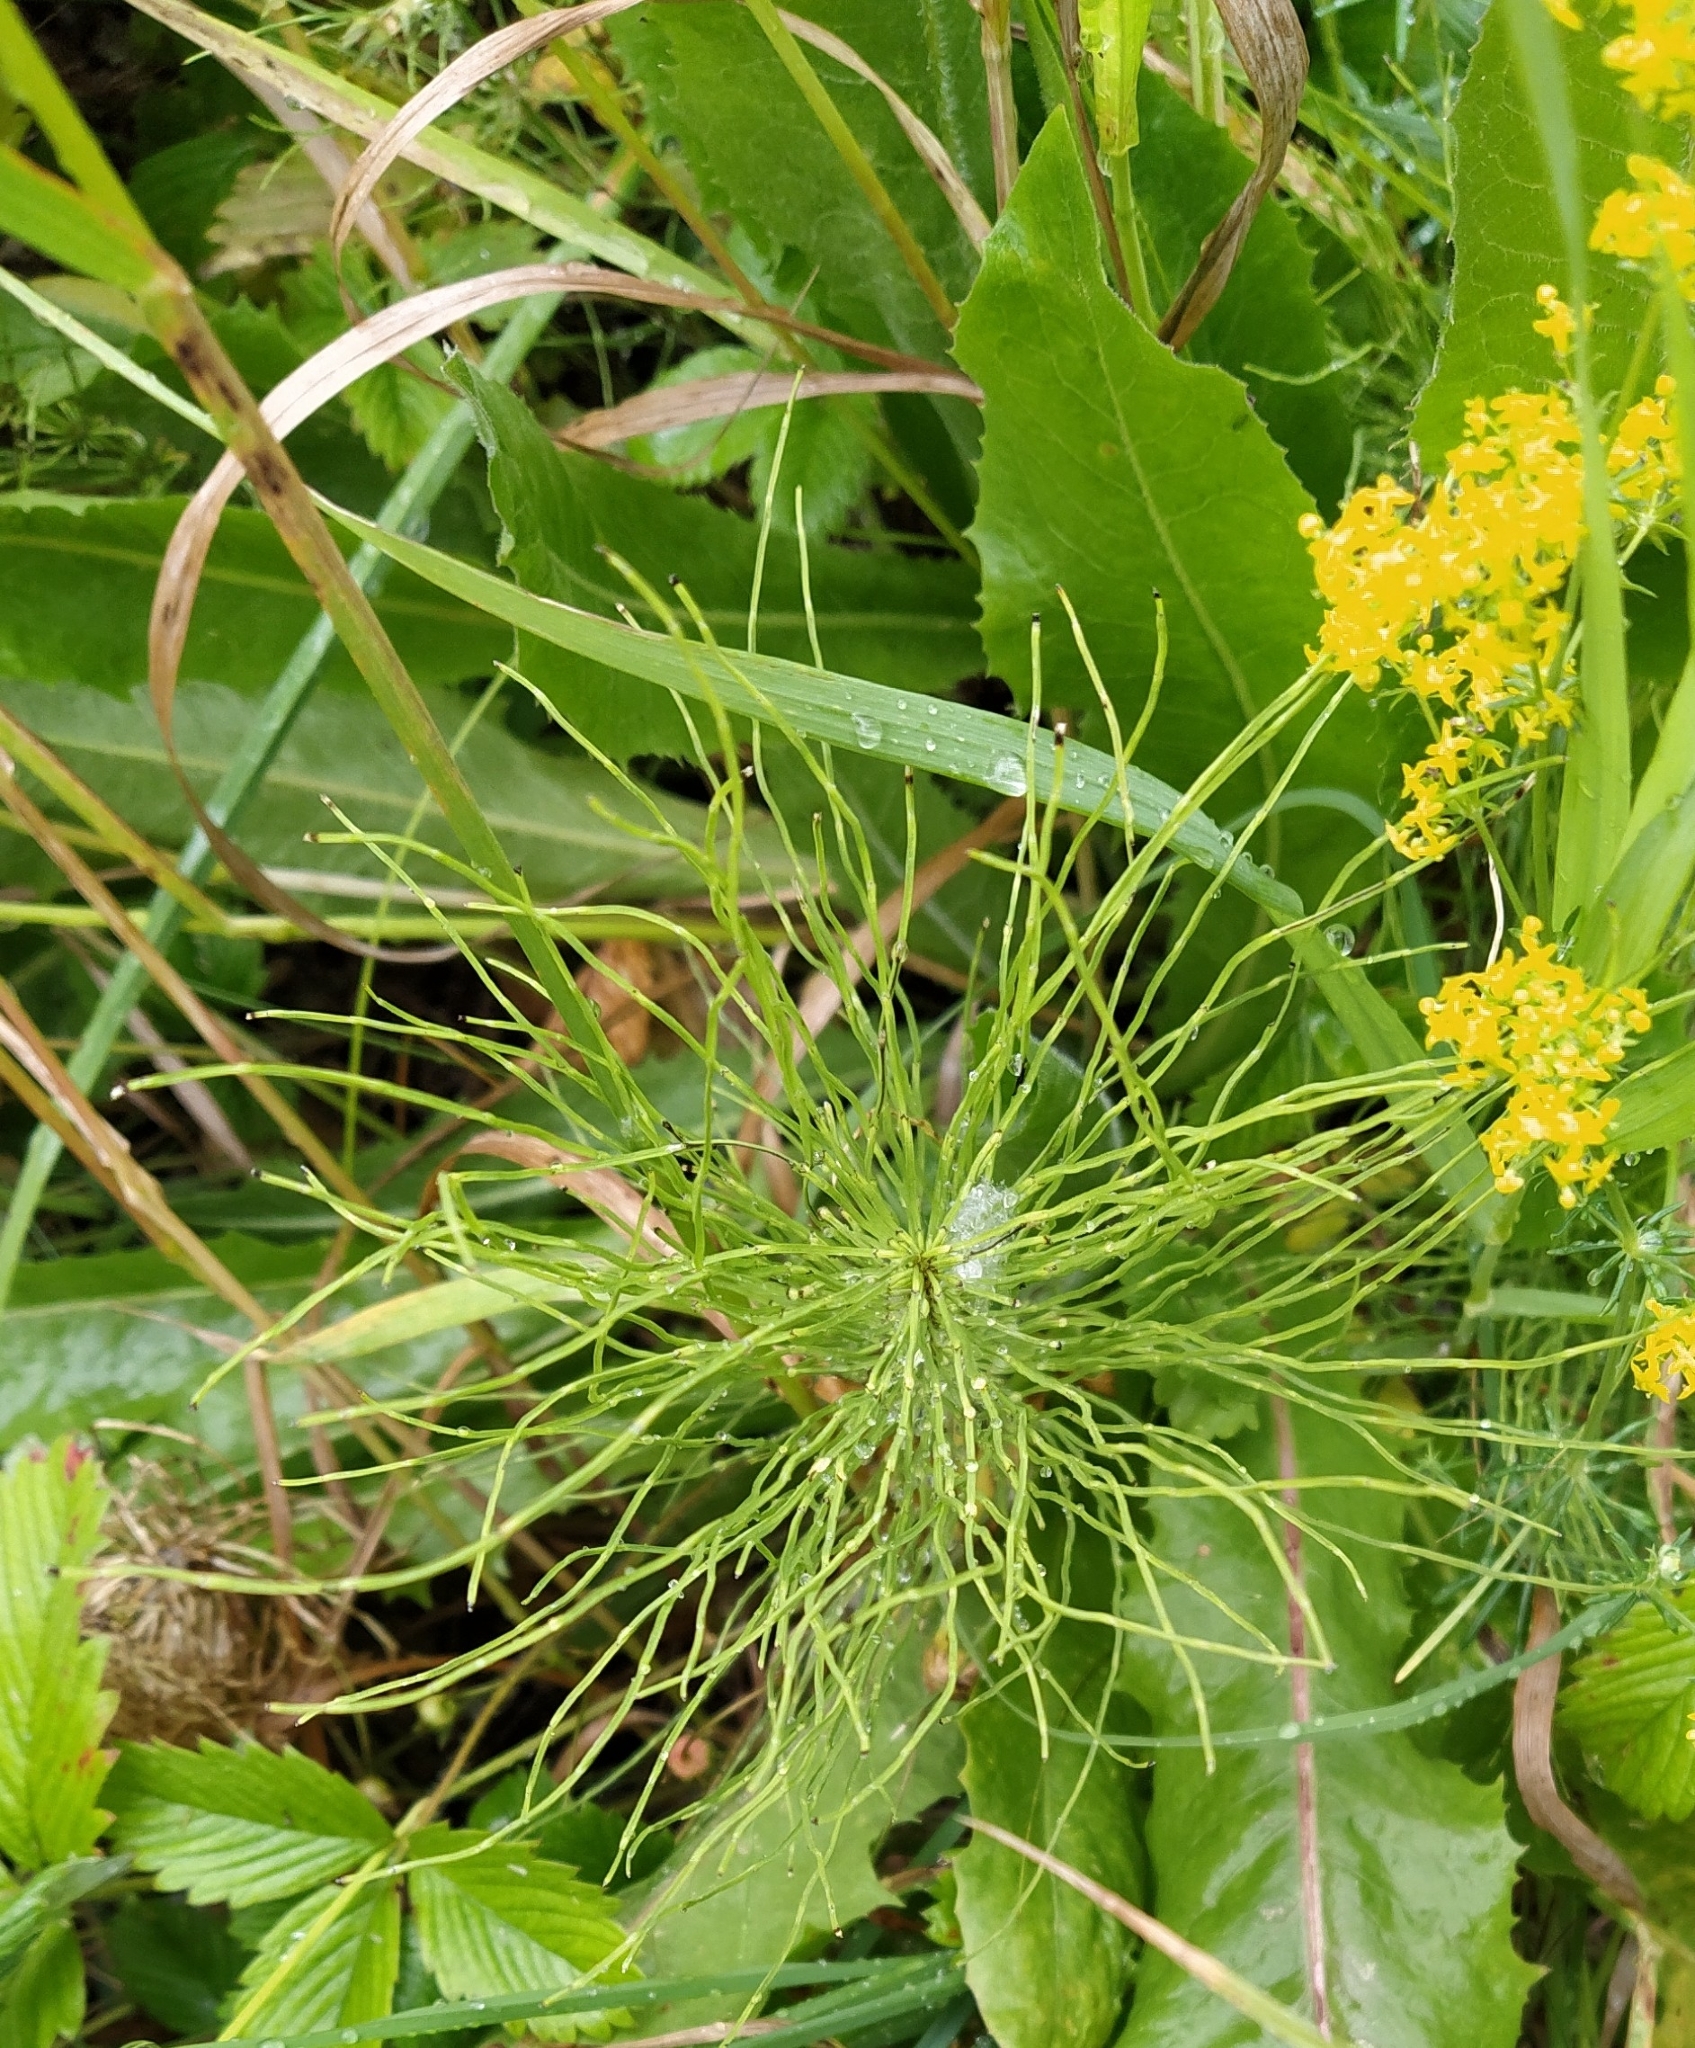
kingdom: Plantae
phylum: Tracheophyta
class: Polypodiopsida
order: Equisetales
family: Equisetaceae
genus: Equisetum
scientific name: Equisetum pratense
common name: Meadow horsetail
